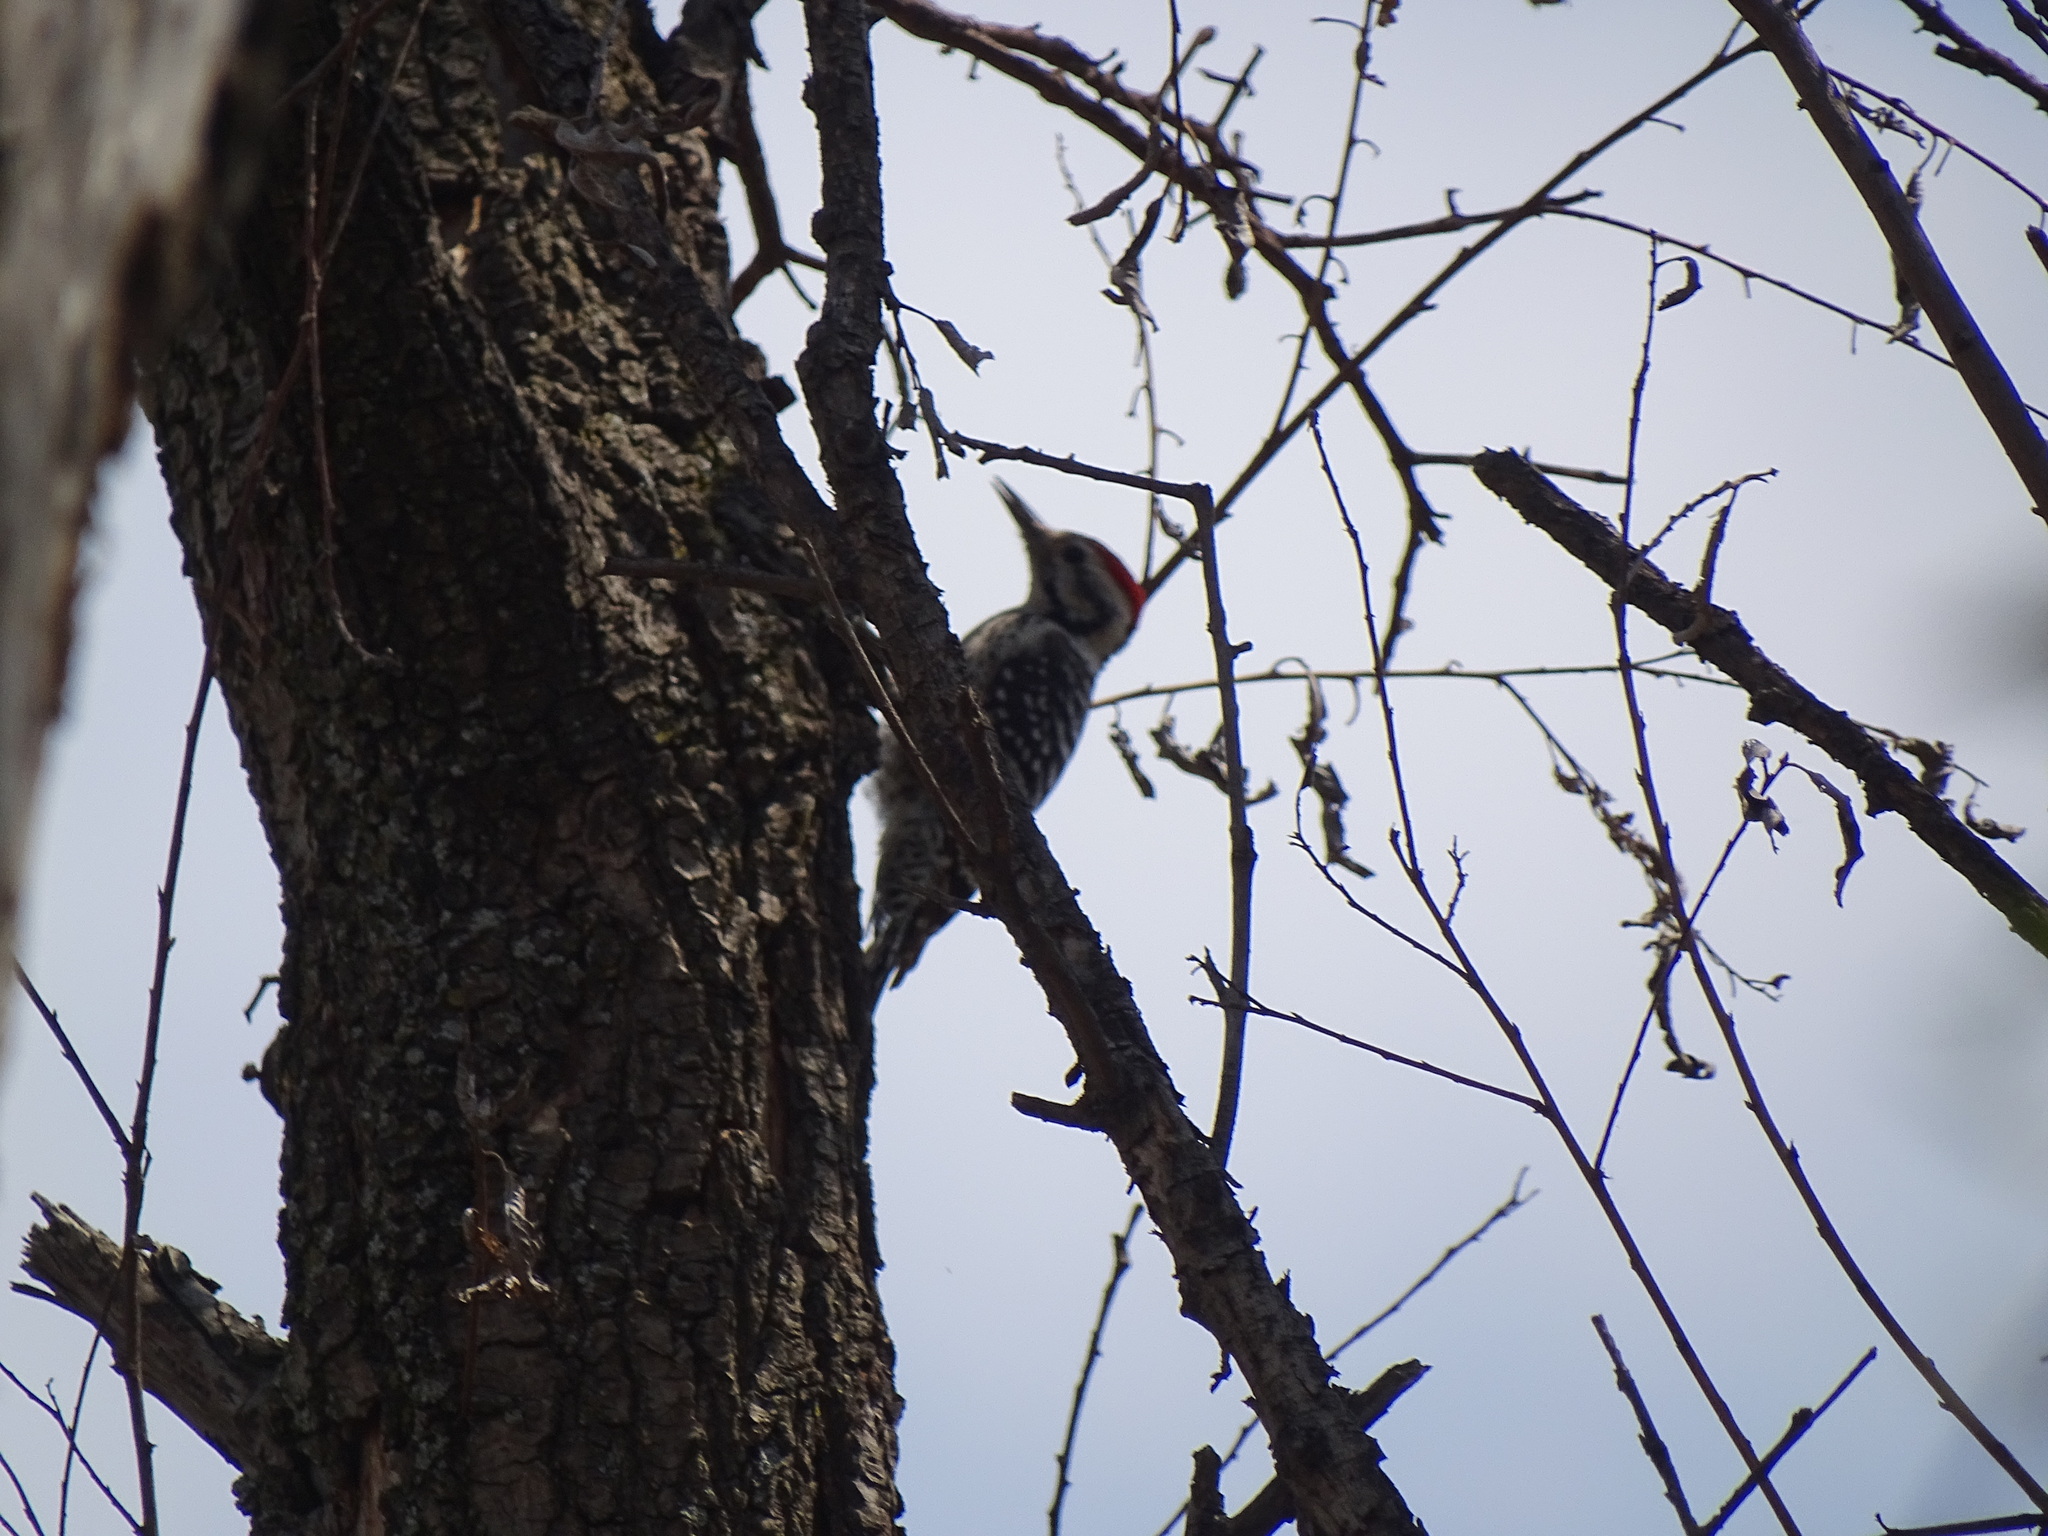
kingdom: Animalia
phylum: Chordata
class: Aves
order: Piciformes
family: Picidae
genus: Dryobates
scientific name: Dryobates scalaris
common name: Ladder-backed woodpecker
